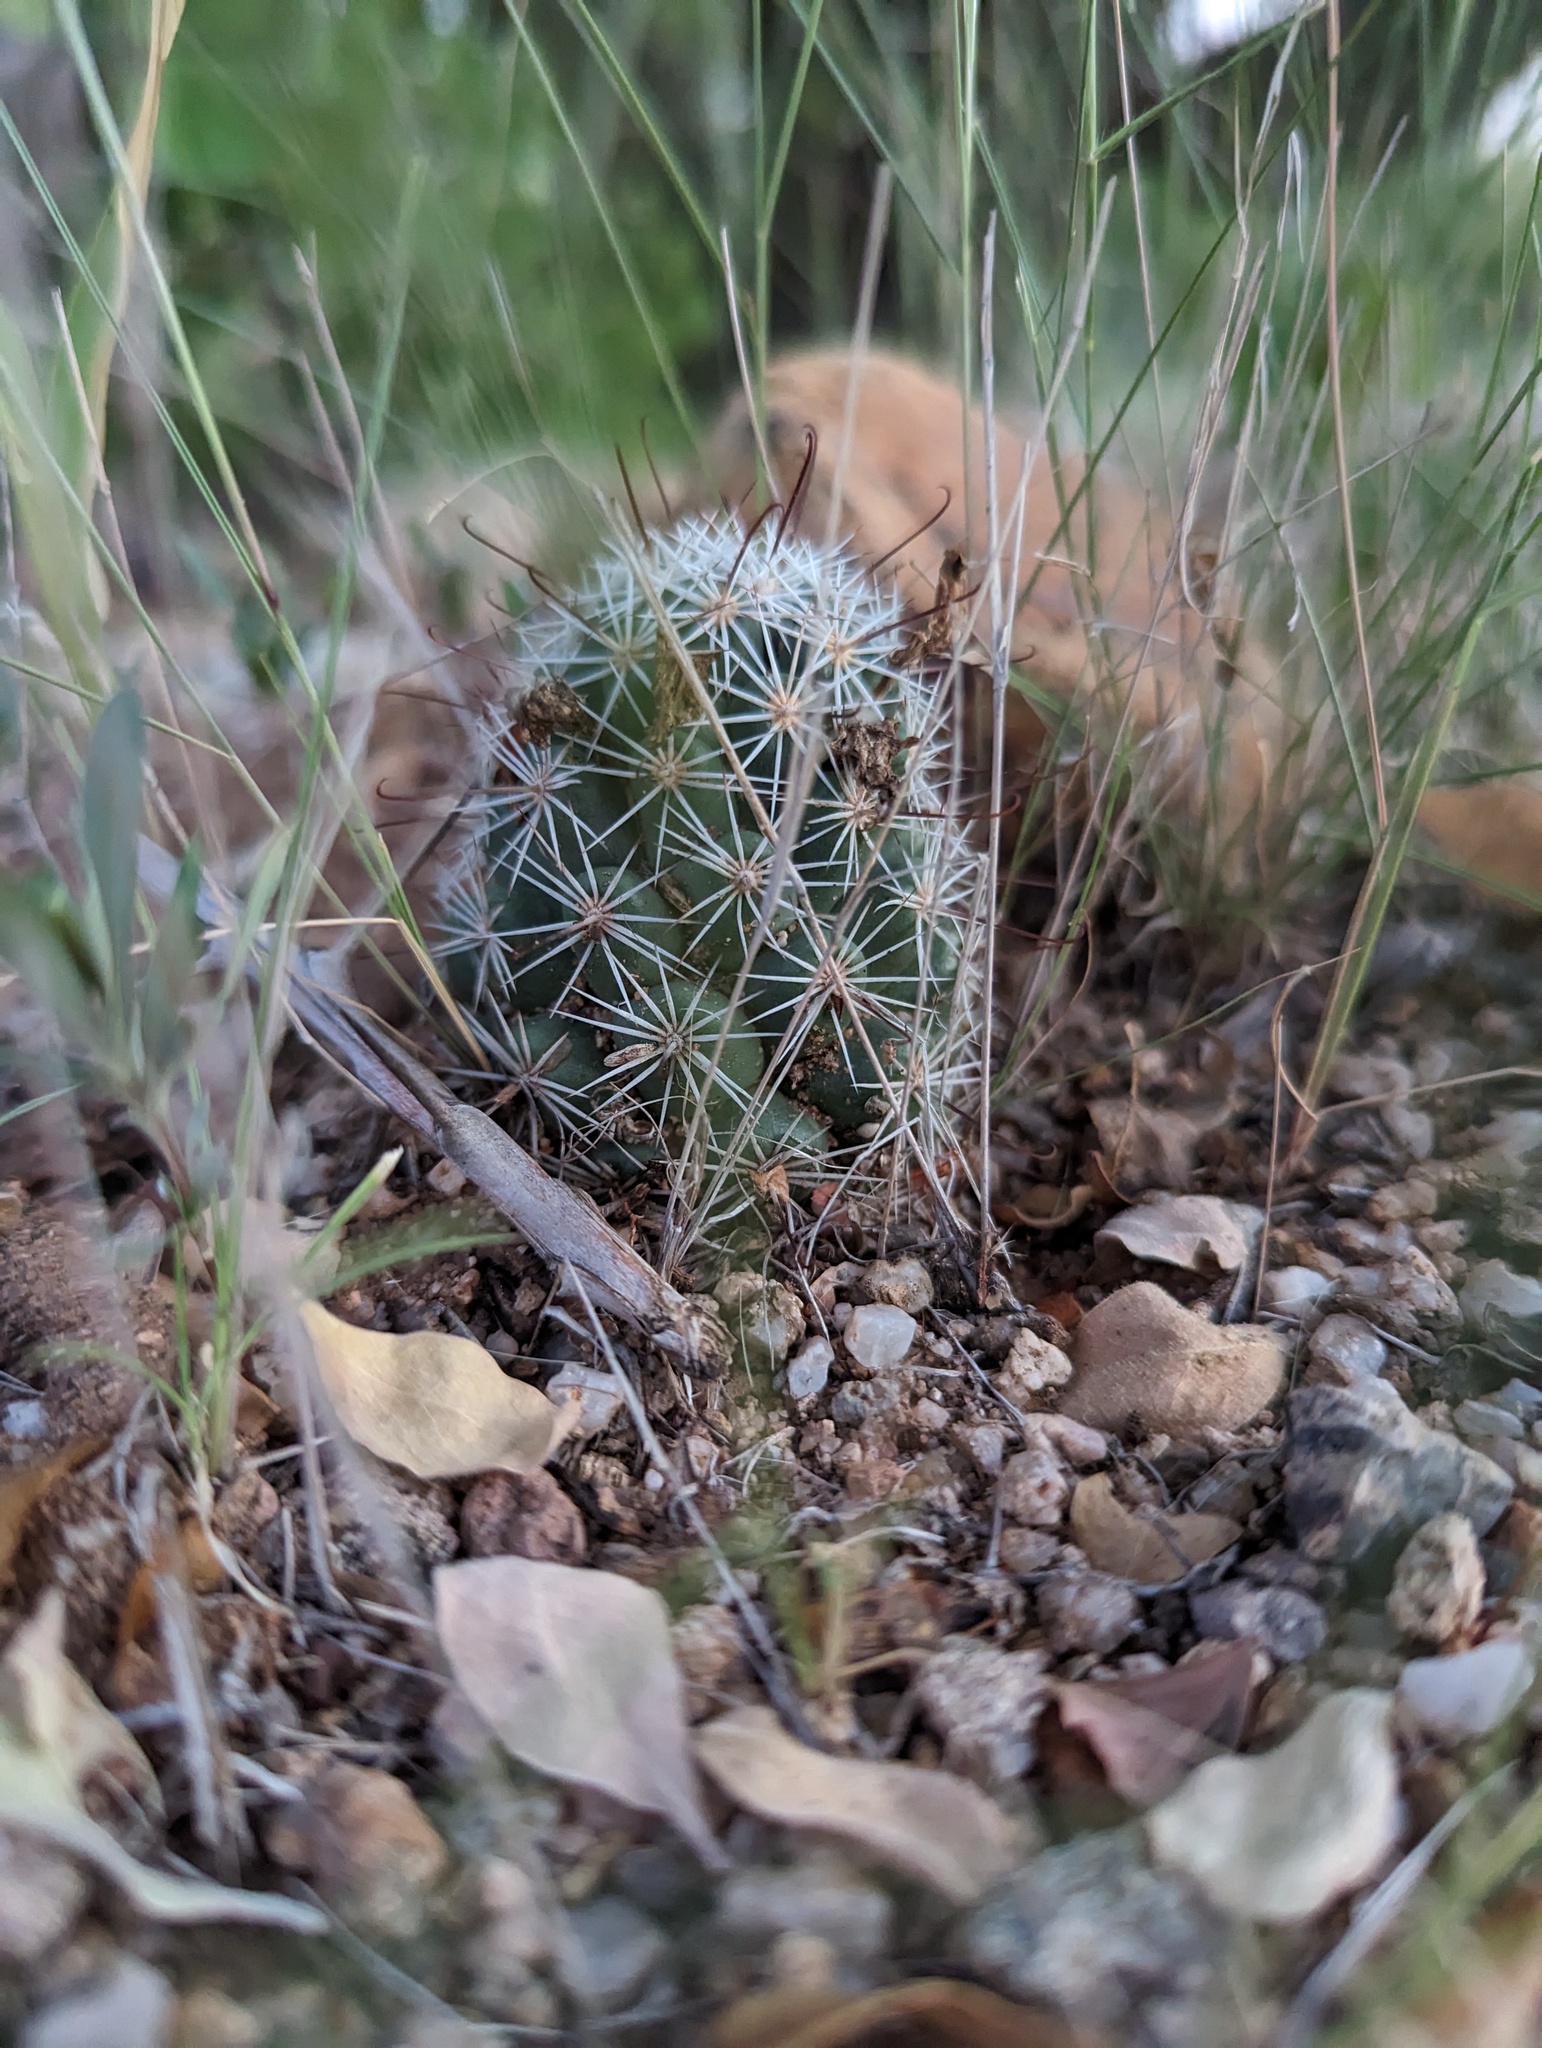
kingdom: Plantae
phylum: Tracheophyta
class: Magnoliopsida
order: Caryophyllales
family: Cactaceae
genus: Cochemiea
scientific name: Cochemiea schumannii
